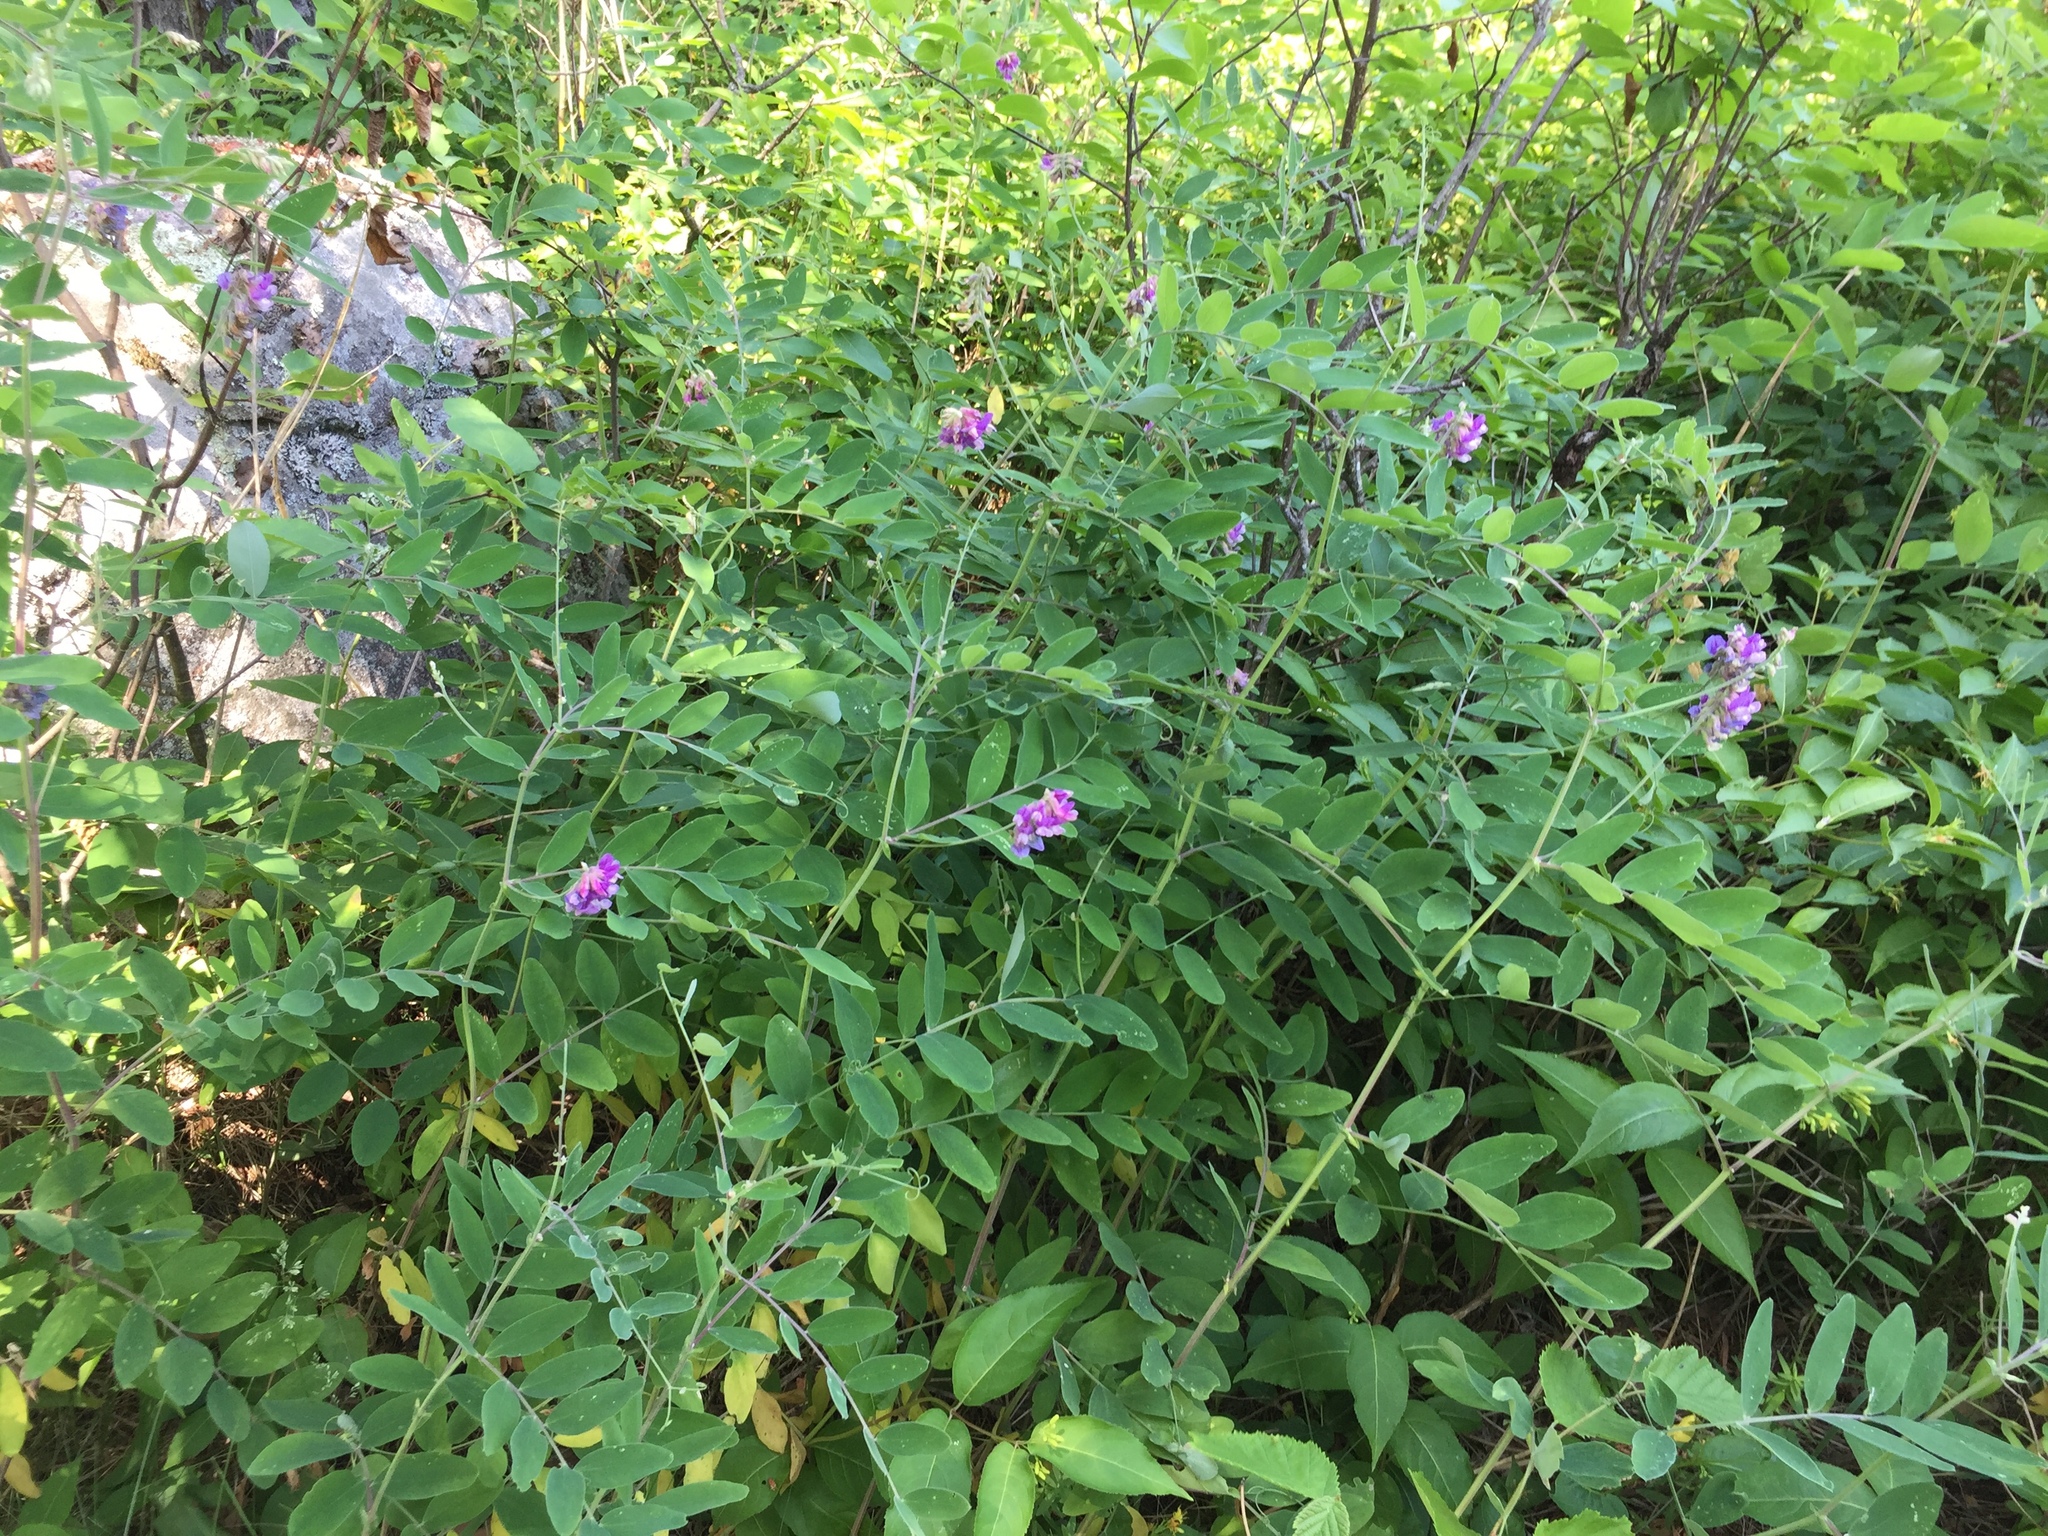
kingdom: Plantae
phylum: Tracheophyta
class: Magnoliopsida
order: Fabales
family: Fabaceae
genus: Lathyrus
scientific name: Lathyrus venosus
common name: Forest-pea
